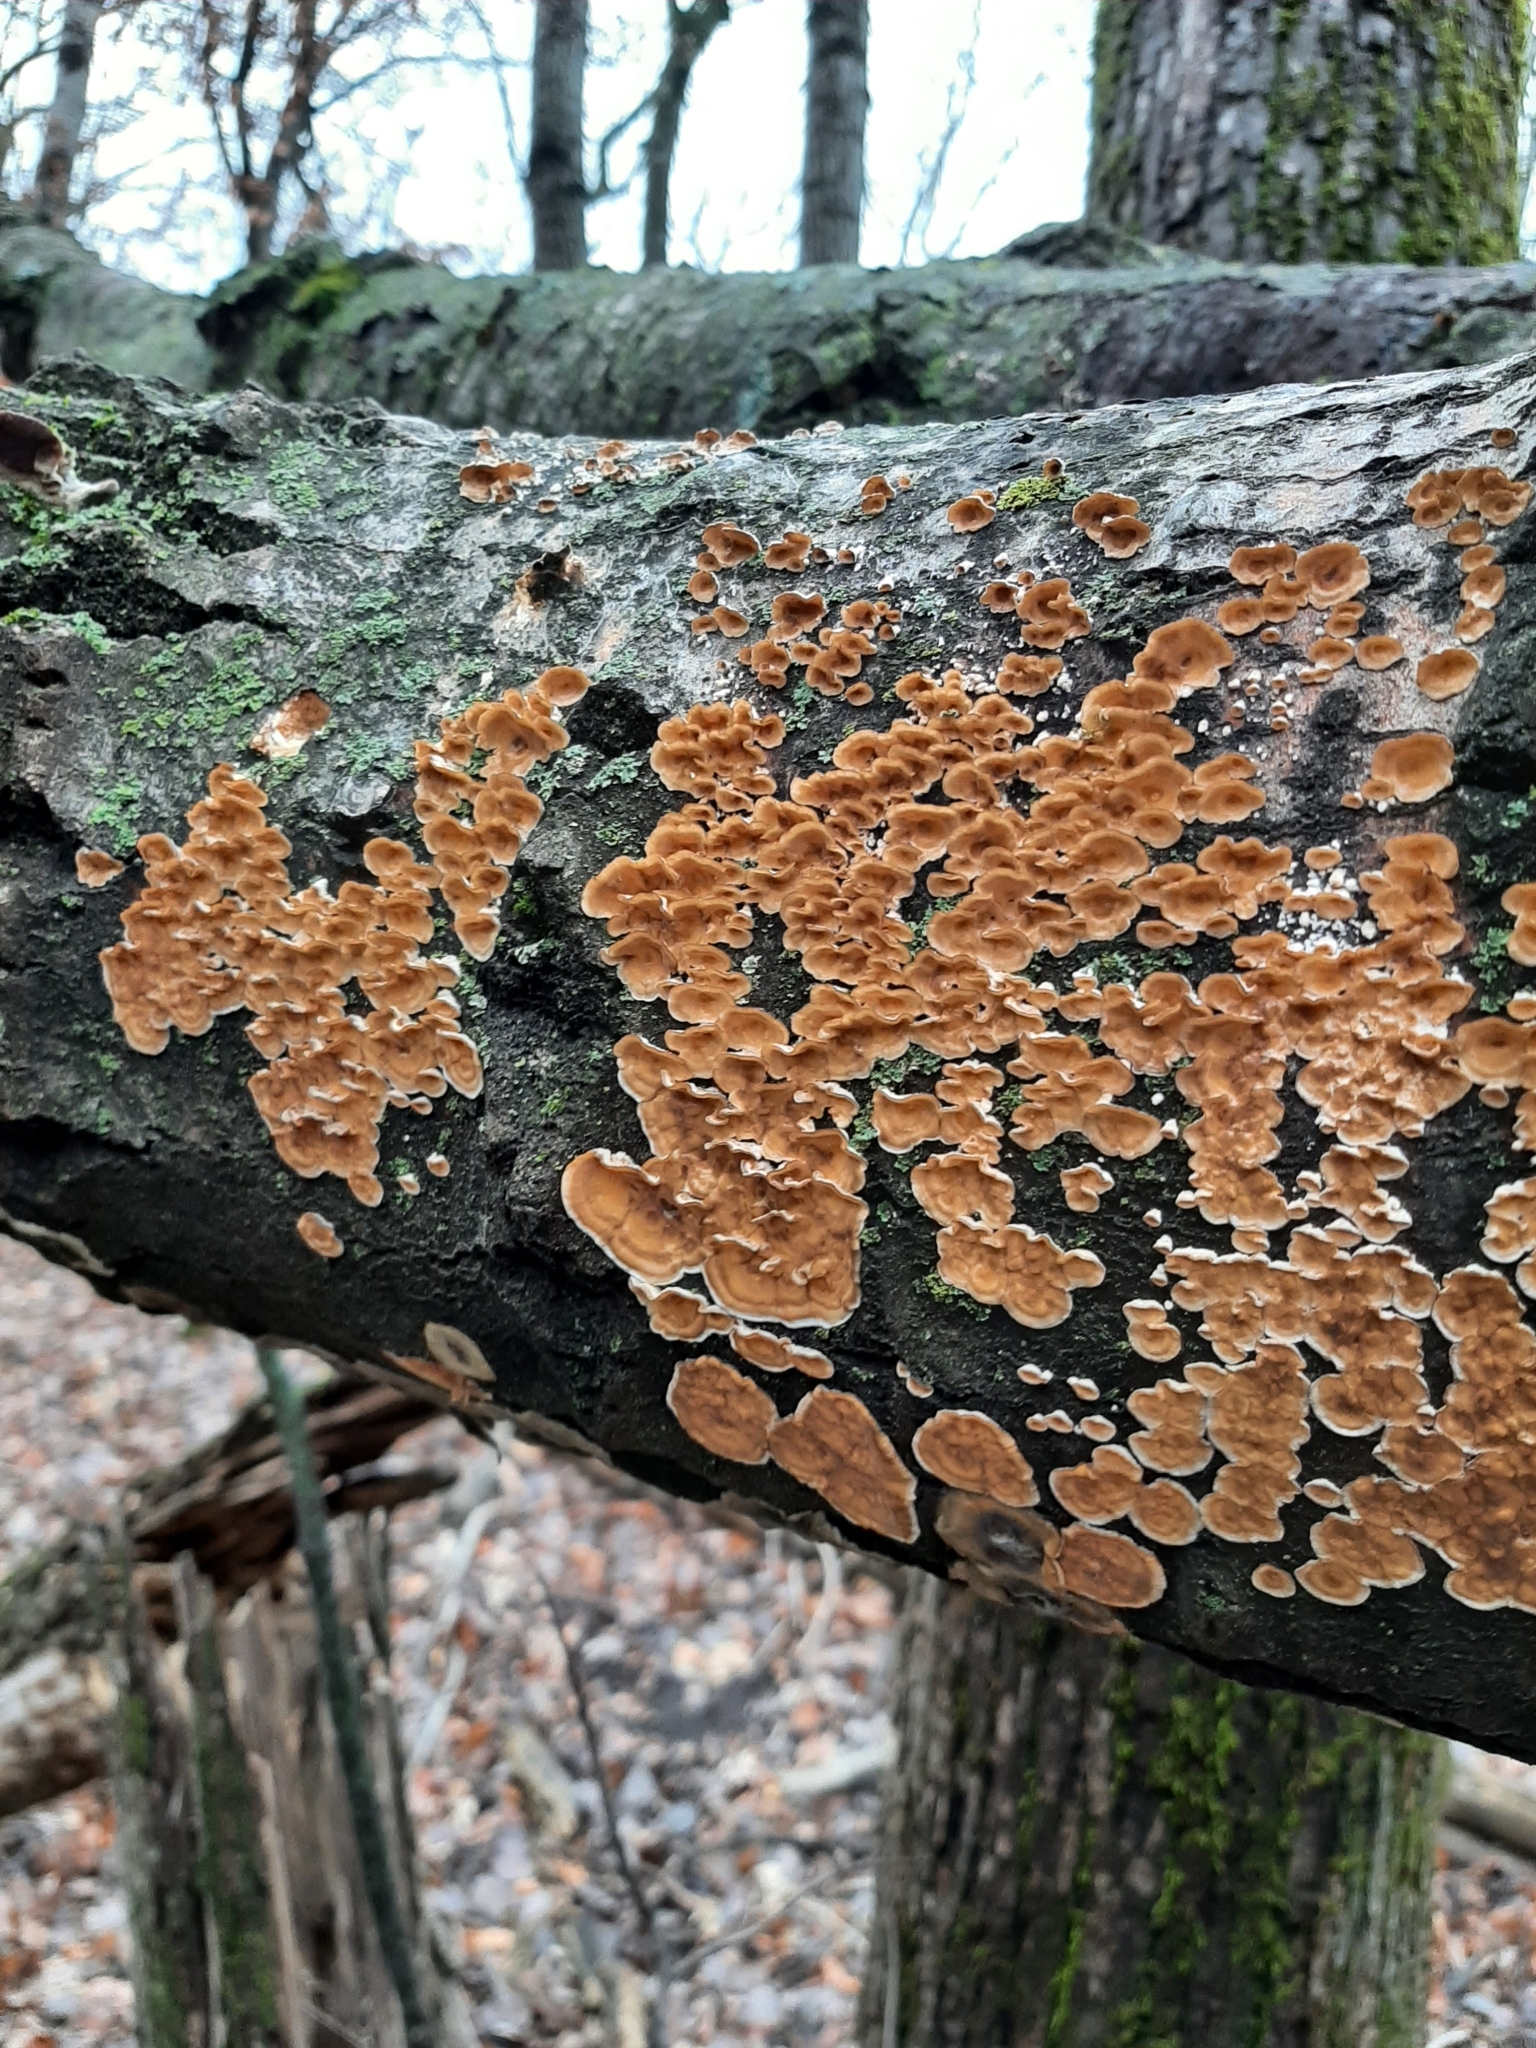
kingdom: Fungi
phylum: Basidiomycota
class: Agaricomycetes
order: Russulales
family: Stereaceae
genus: Stereum
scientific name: Stereum complicatum
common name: Crowded parchment
